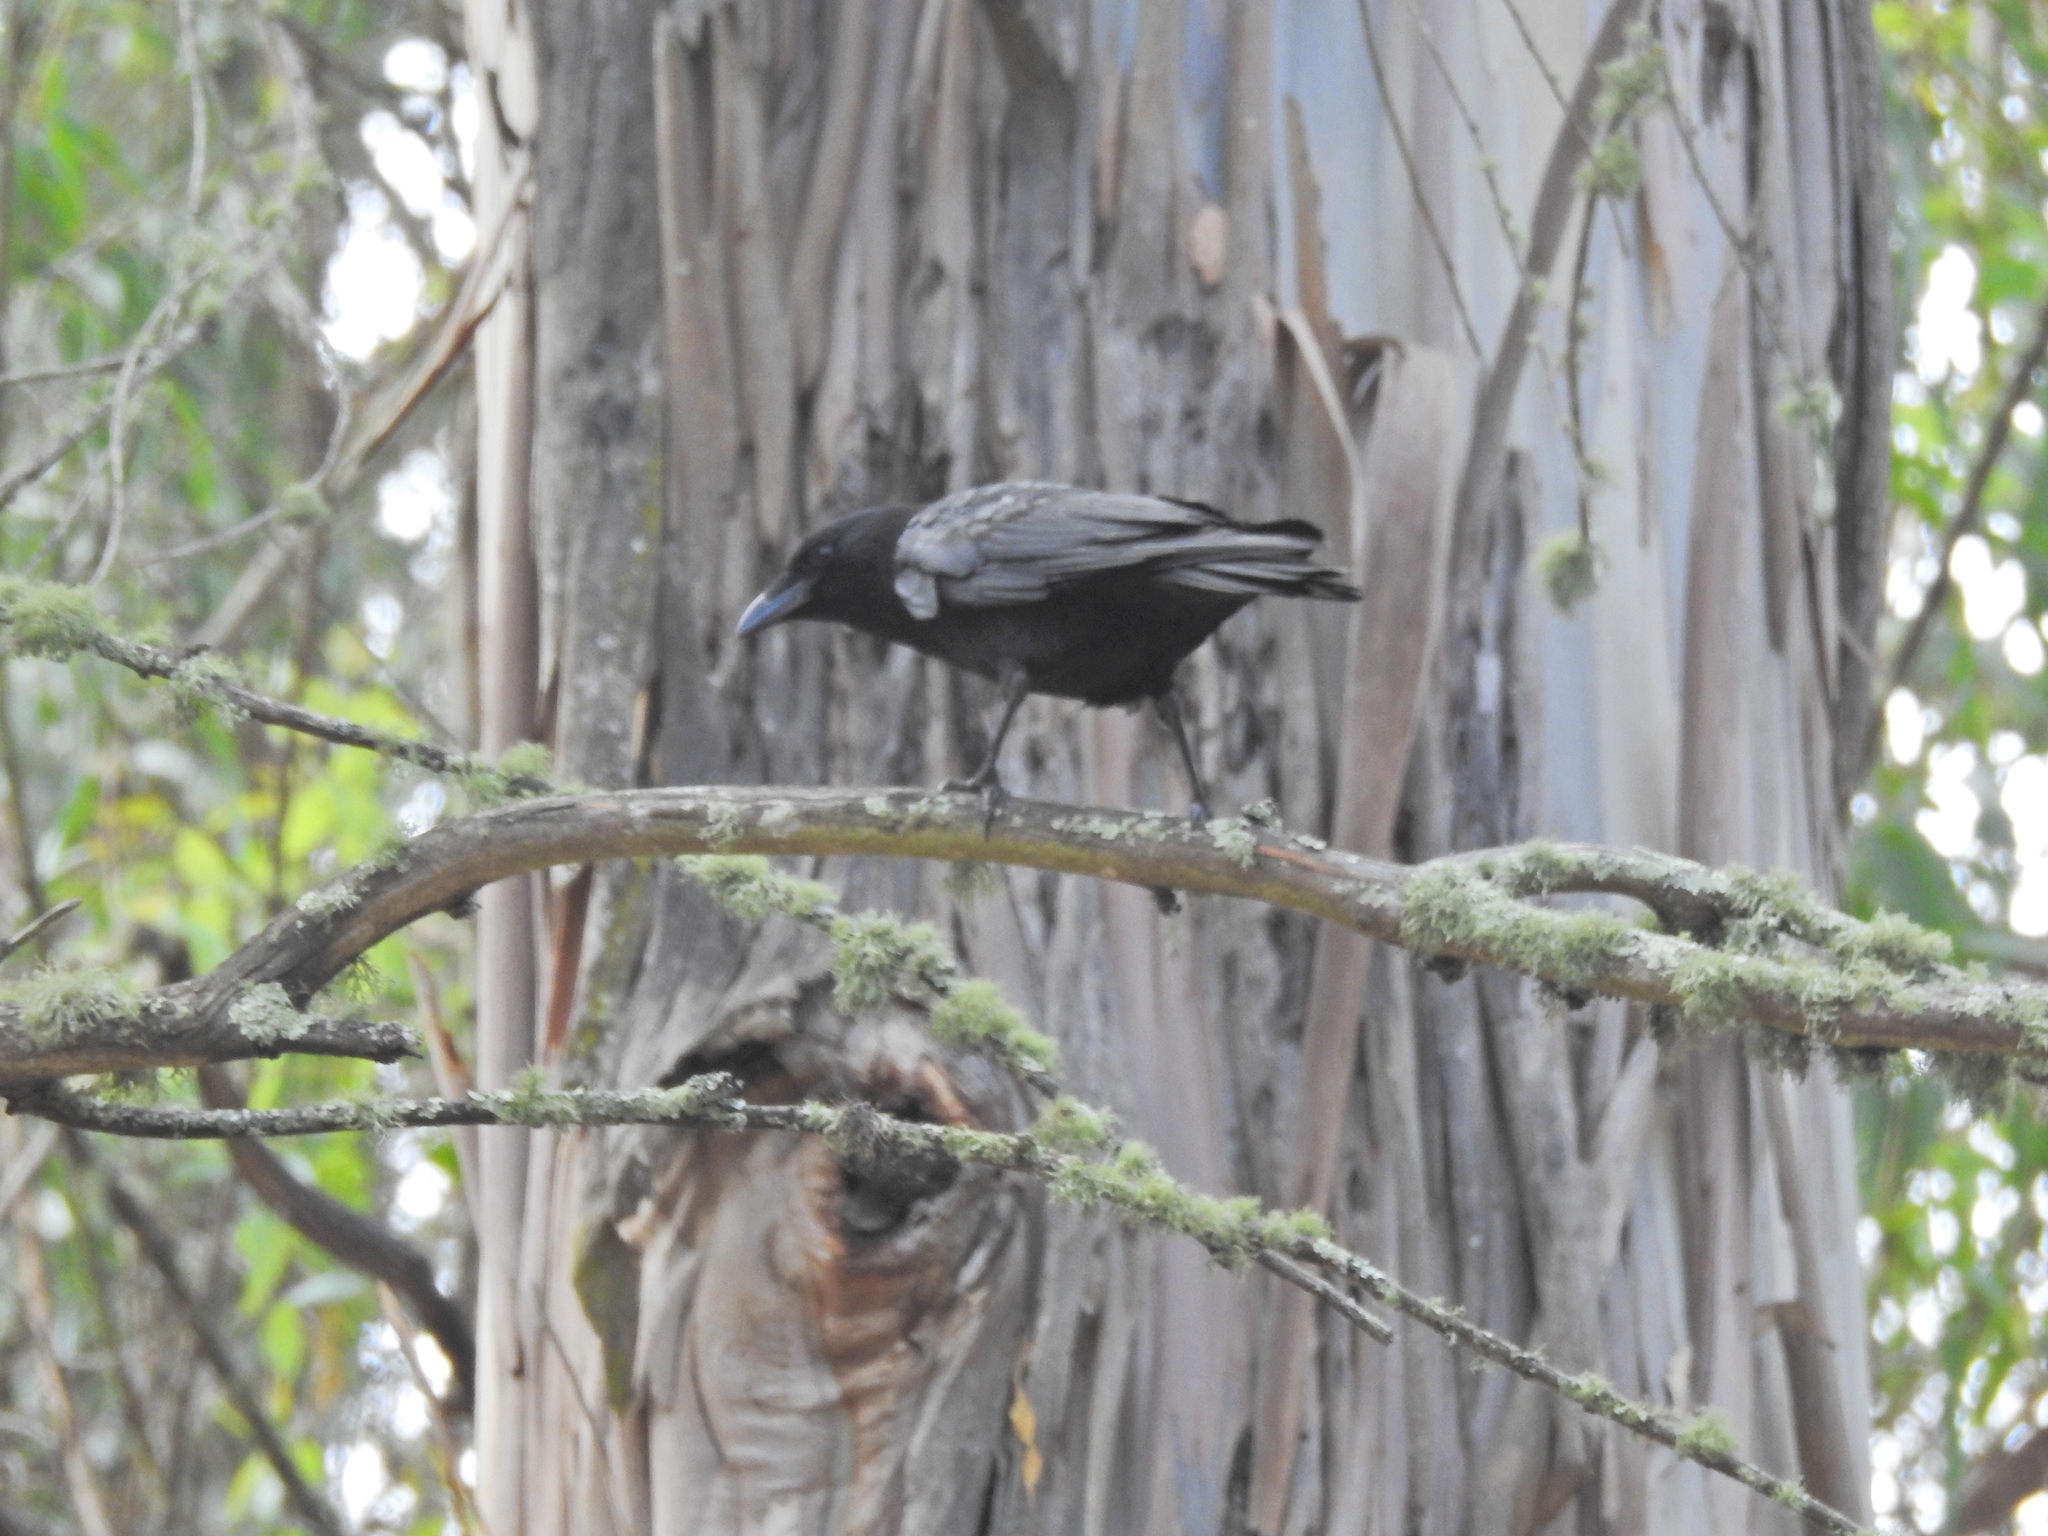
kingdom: Animalia
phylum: Chordata
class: Aves
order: Passeriformes
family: Corvidae
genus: Corvus
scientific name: Corvus brachyrhynchos
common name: American crow
